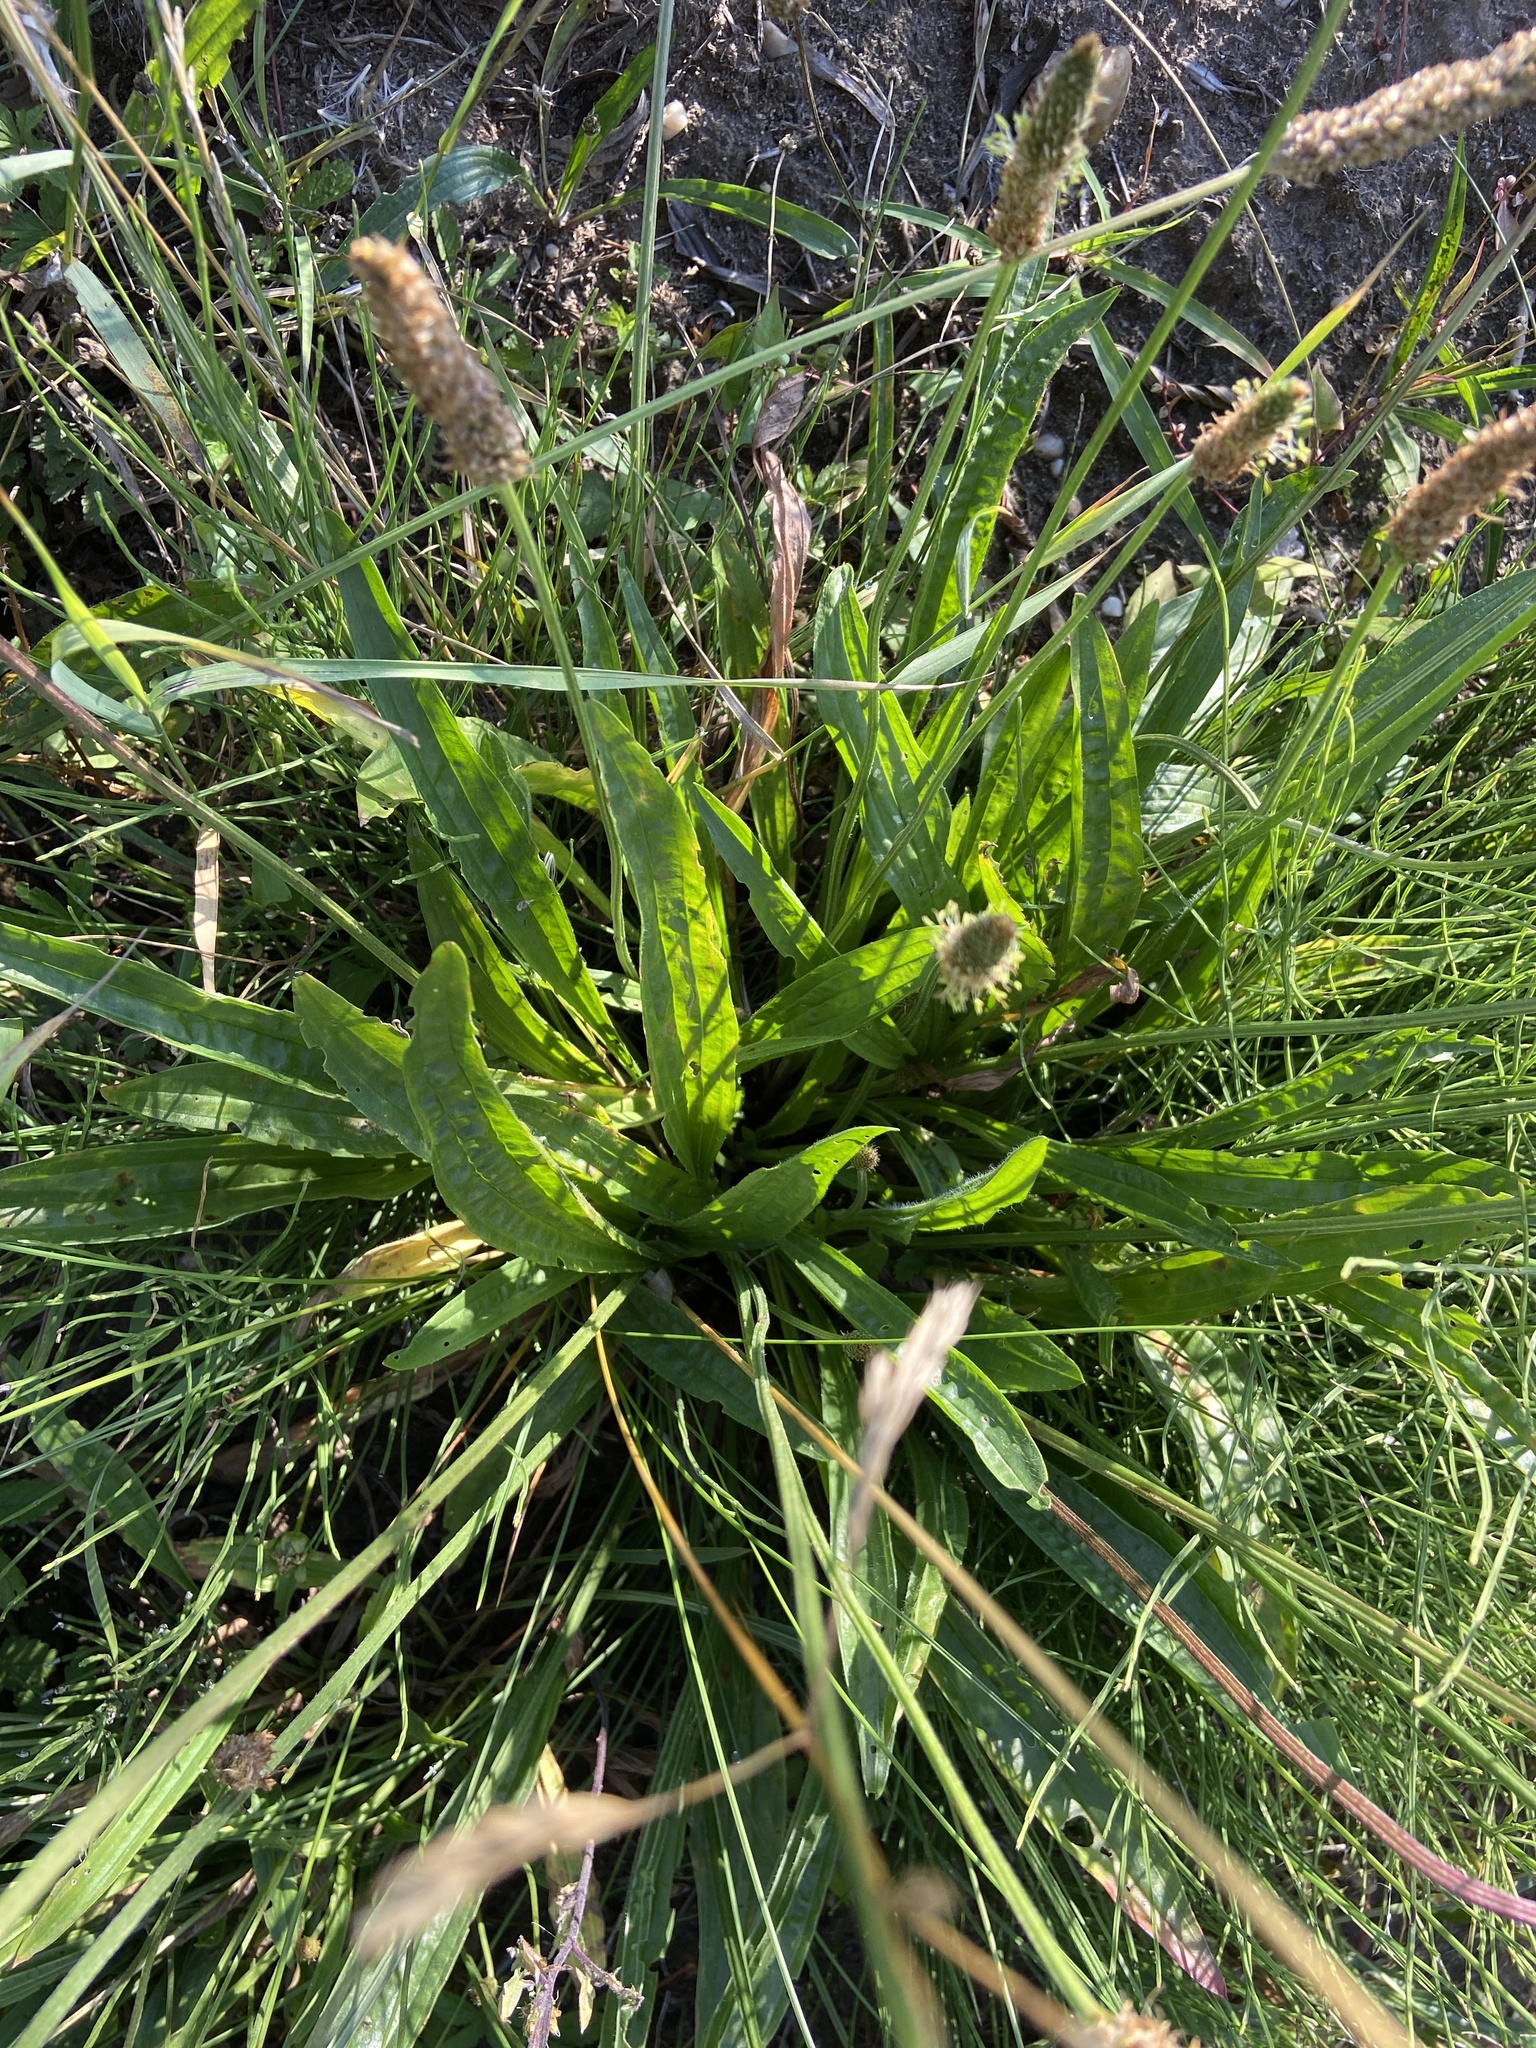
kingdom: Plantae
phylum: Tracheophyta
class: Magnoliopsida
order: Lamiales
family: Plantaginaceae
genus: Plantago
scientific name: Plantago lanceolata
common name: Ribwort plantain
